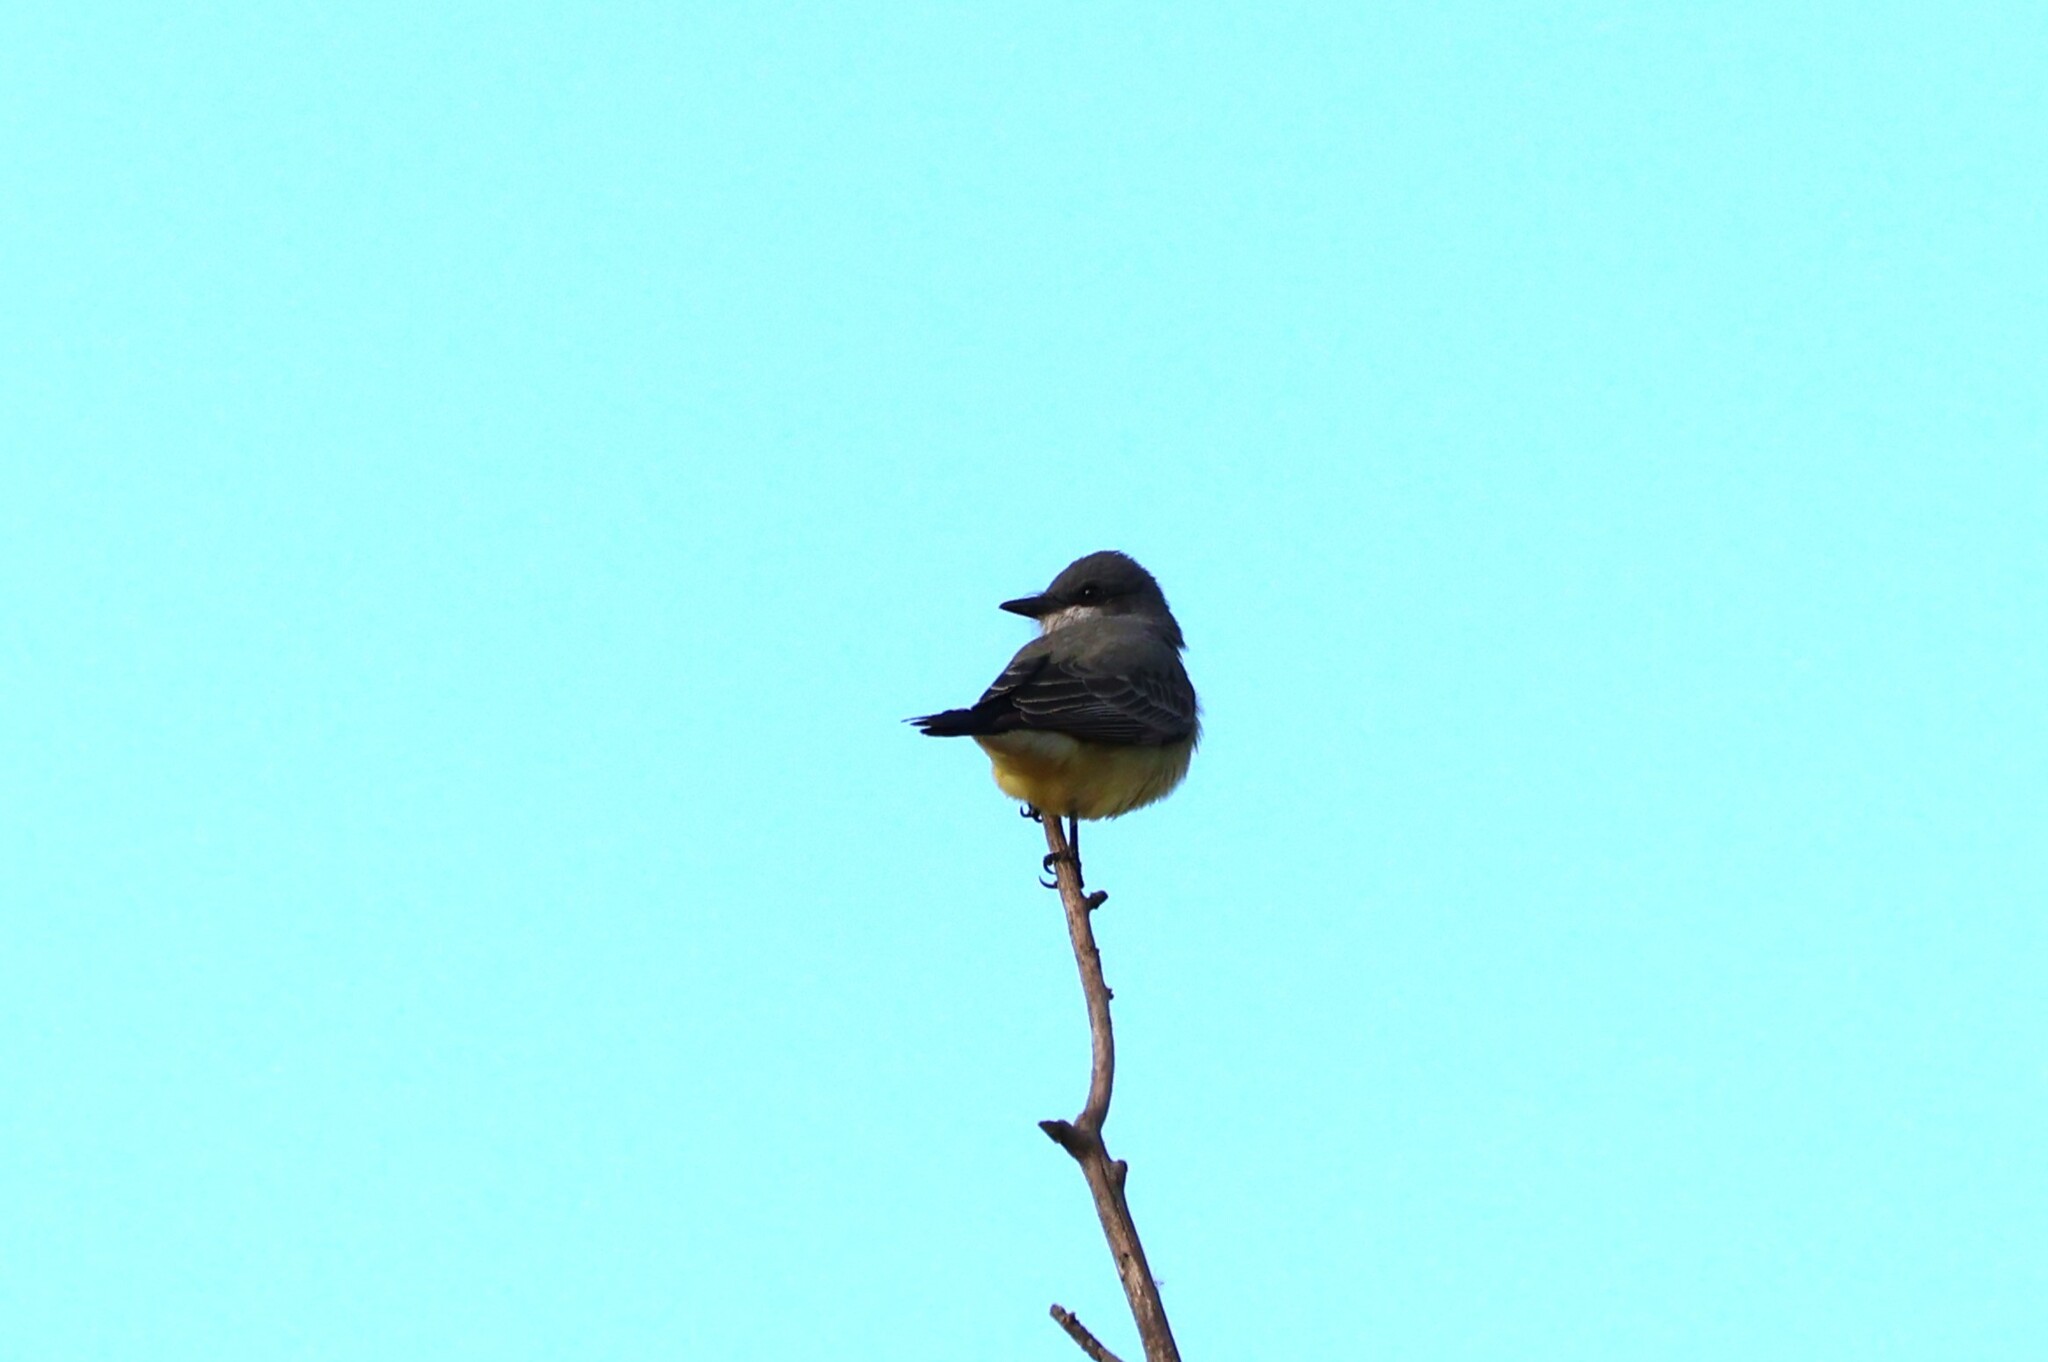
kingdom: Animalia
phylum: Chordata
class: Aves
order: Passeriformes
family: Tyrannidae
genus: Tyrannus
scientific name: Tyrannus vociferans
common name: Cassin's kingbird
